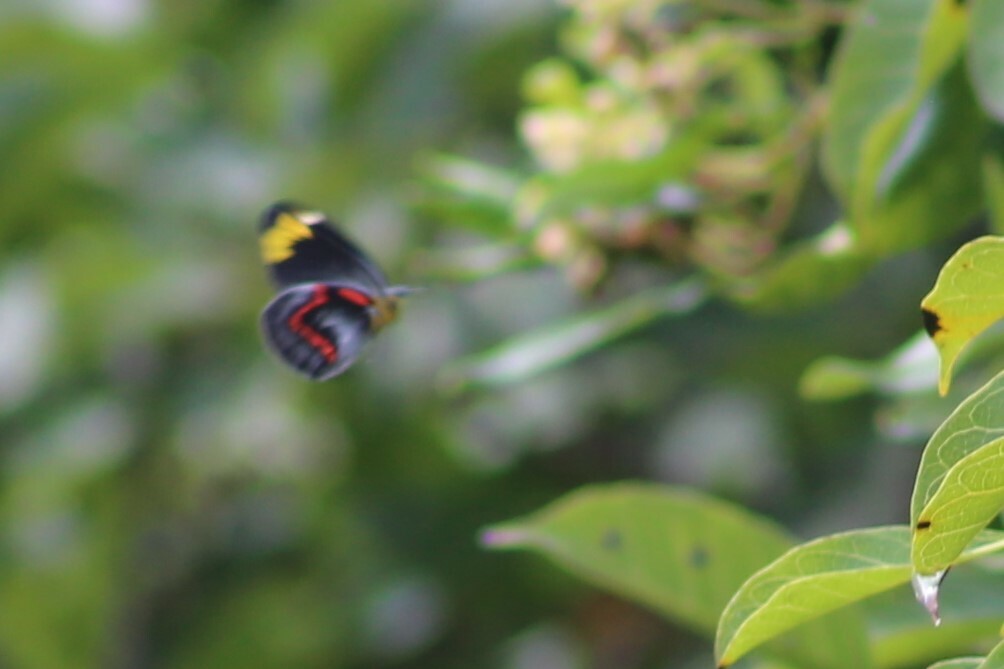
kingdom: Animalia
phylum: Arthropoda
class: Insecta
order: Lepidoptera
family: Pieridae
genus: Delias
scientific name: Delias nigrina
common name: Black jezebel
